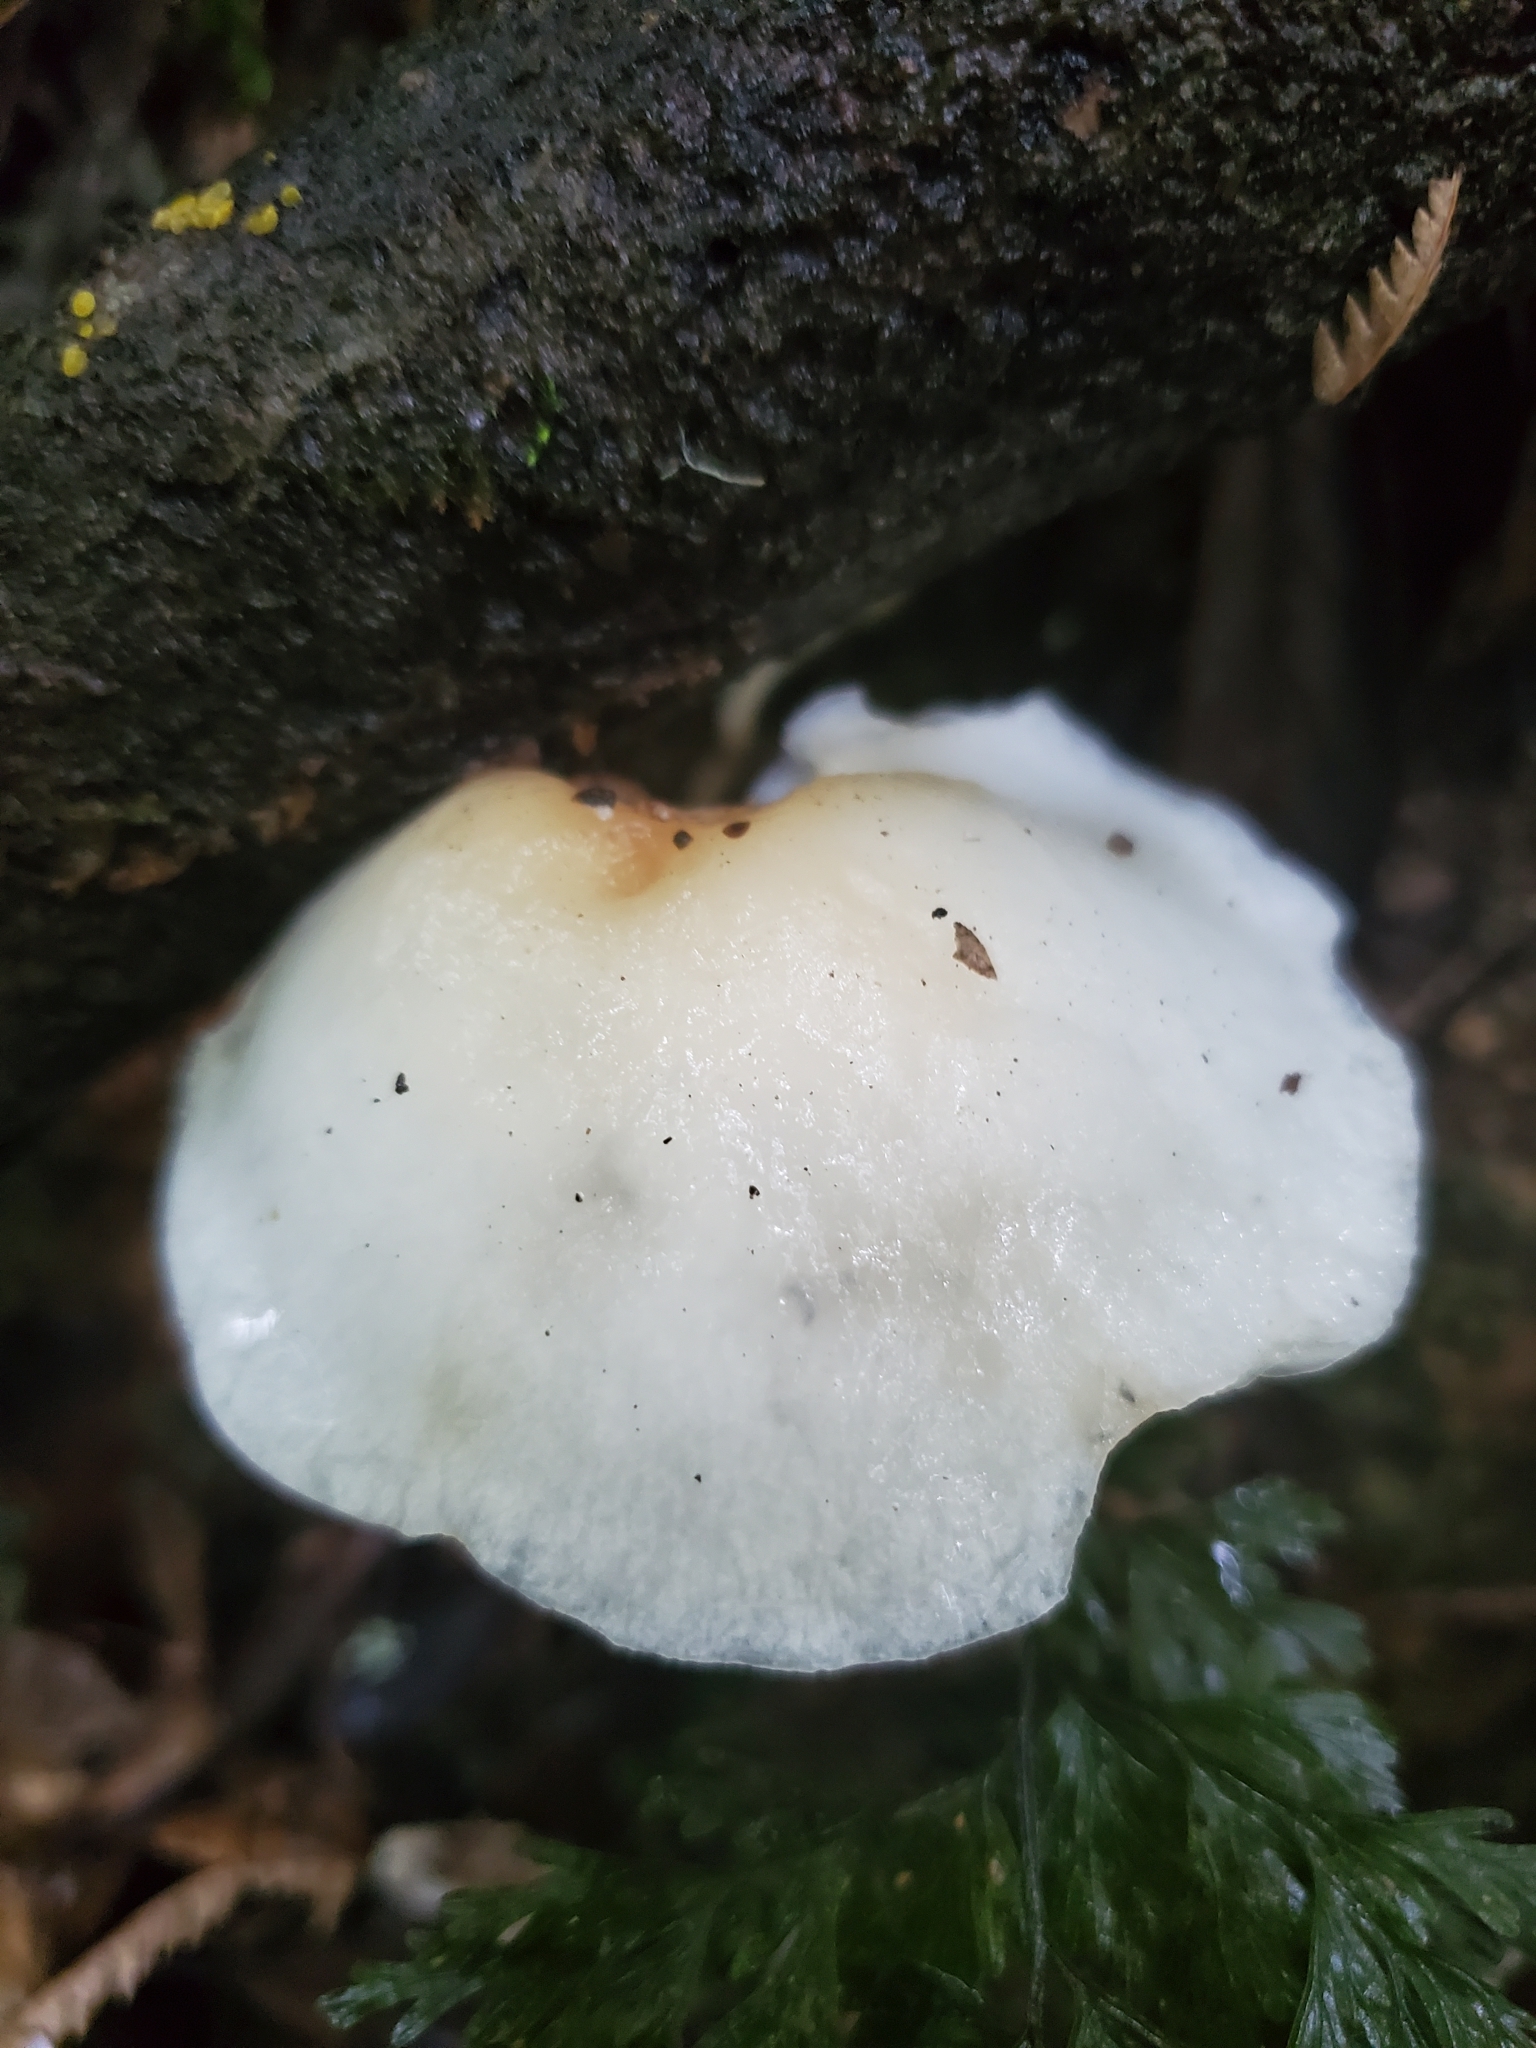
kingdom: Fungi
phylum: Basidiomycota
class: Agaricomycetes
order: Agaricales
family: Physalacriaceae
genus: Oudemansiella
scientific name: Oudemansiella australis
